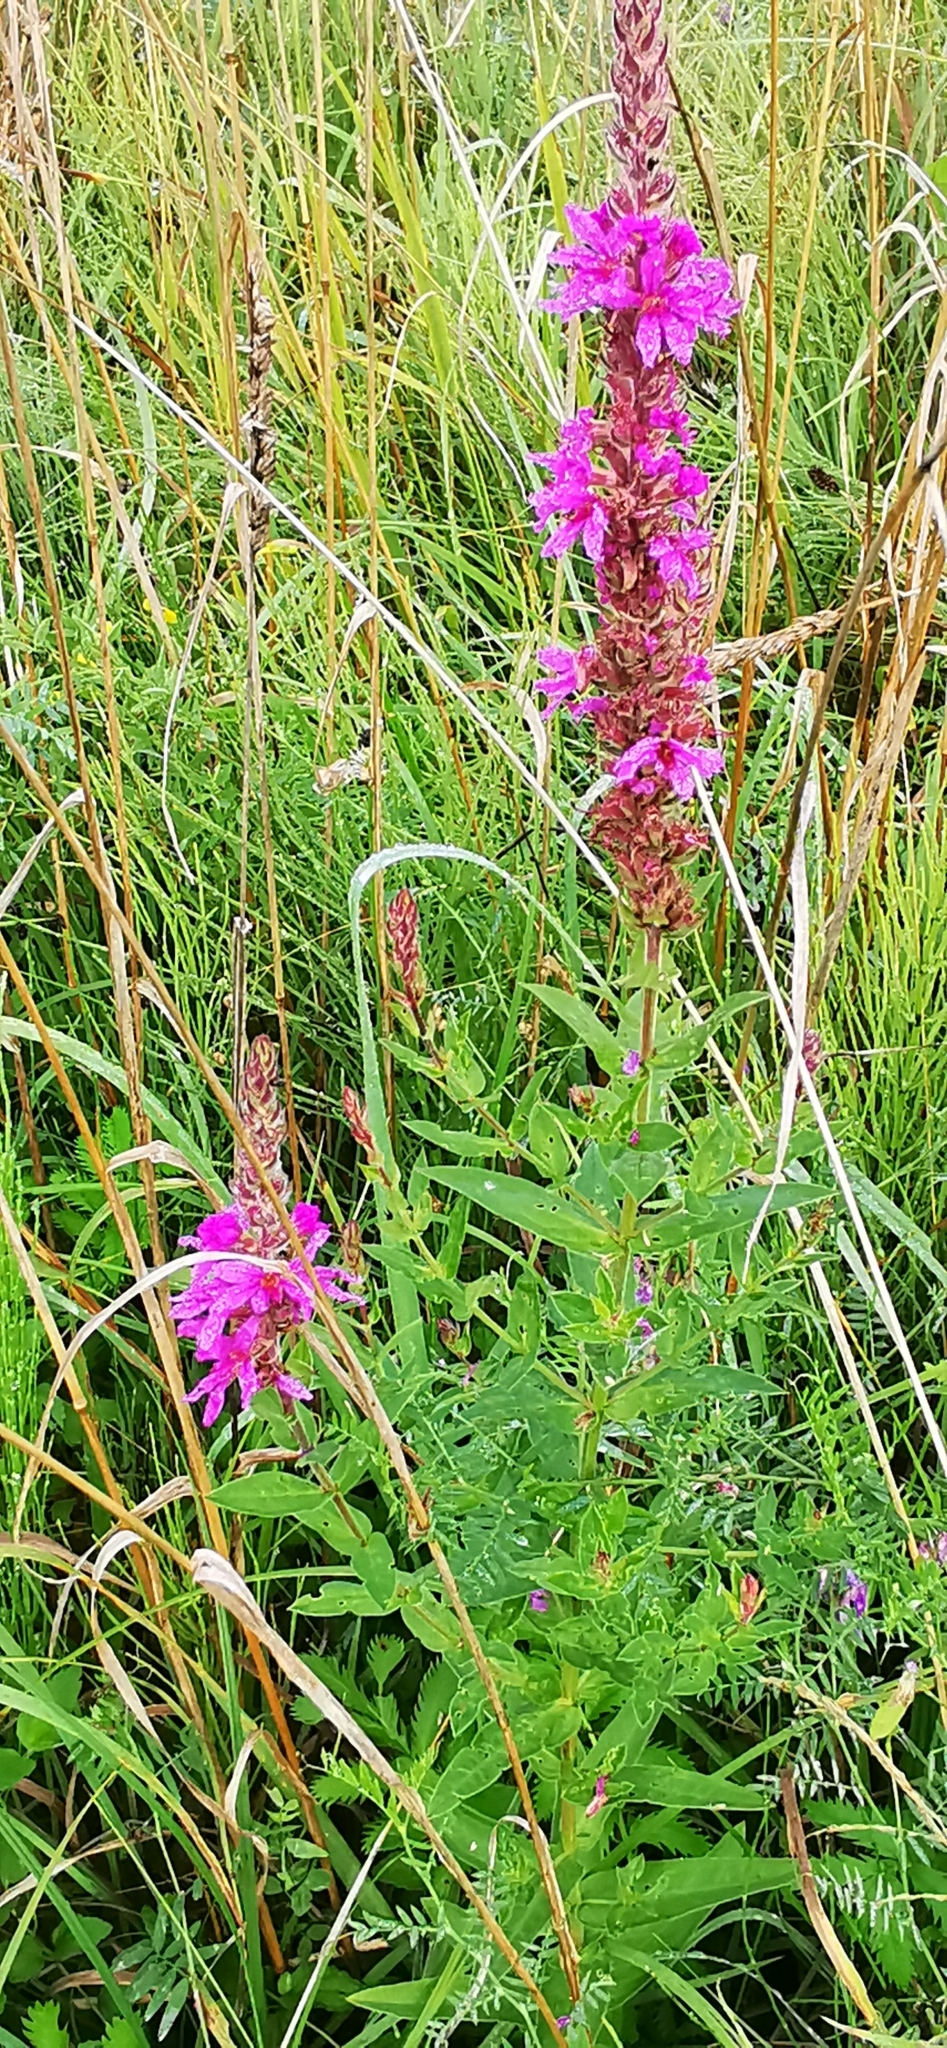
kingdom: Plantae
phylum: Tracheophyta
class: Magnoliopsida
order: Myrtales
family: Lythraceae
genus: Lythrum
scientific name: Lythrum salicaria
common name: Purple loosestrife
